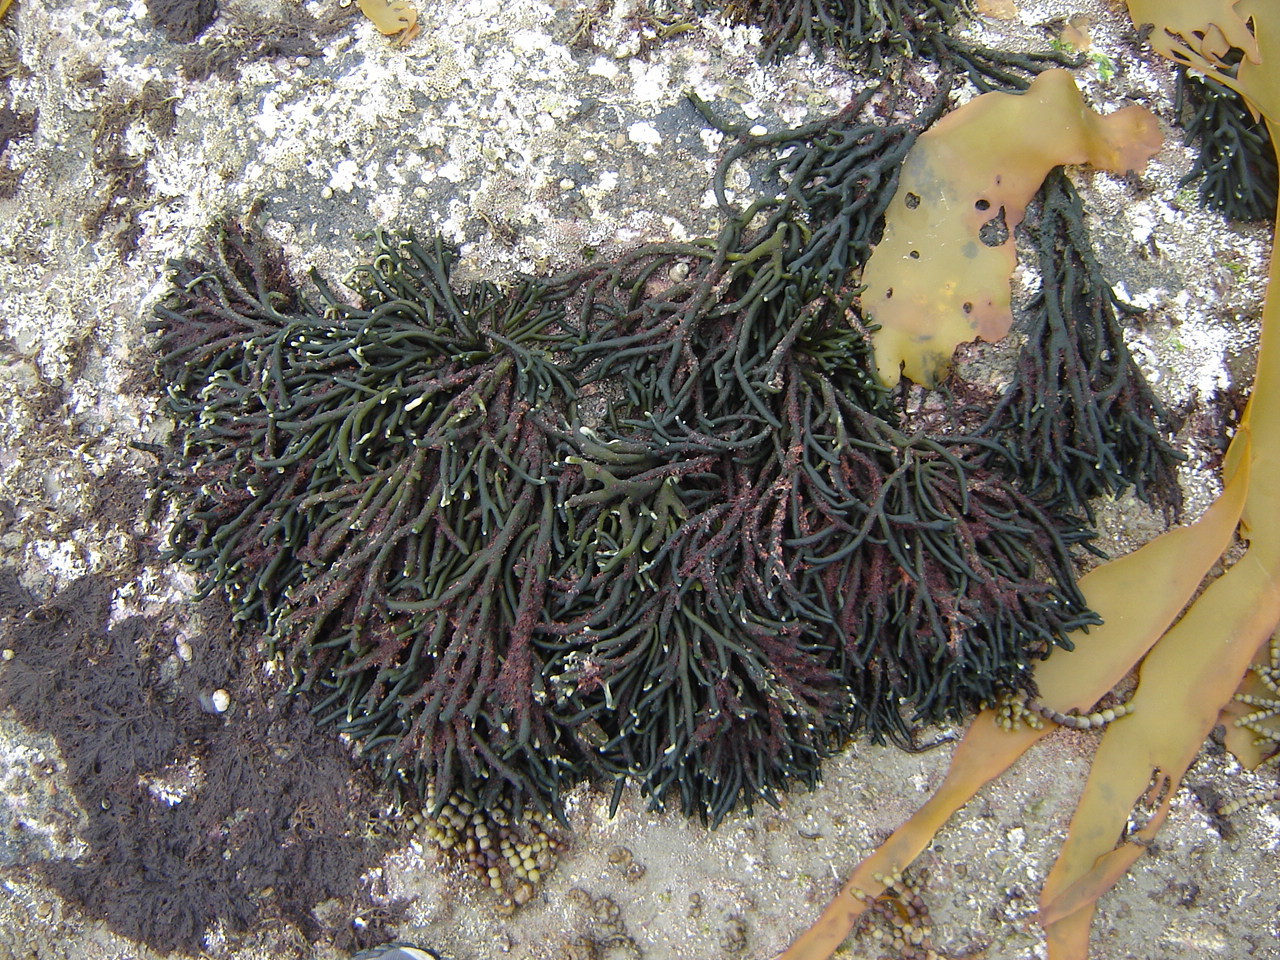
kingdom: Plantae
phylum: Chlorophyta
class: Ulvophyceae
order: Bryopsidales
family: Codiaceae
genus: Codium
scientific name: Codium fragile
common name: Dead man's fingers
